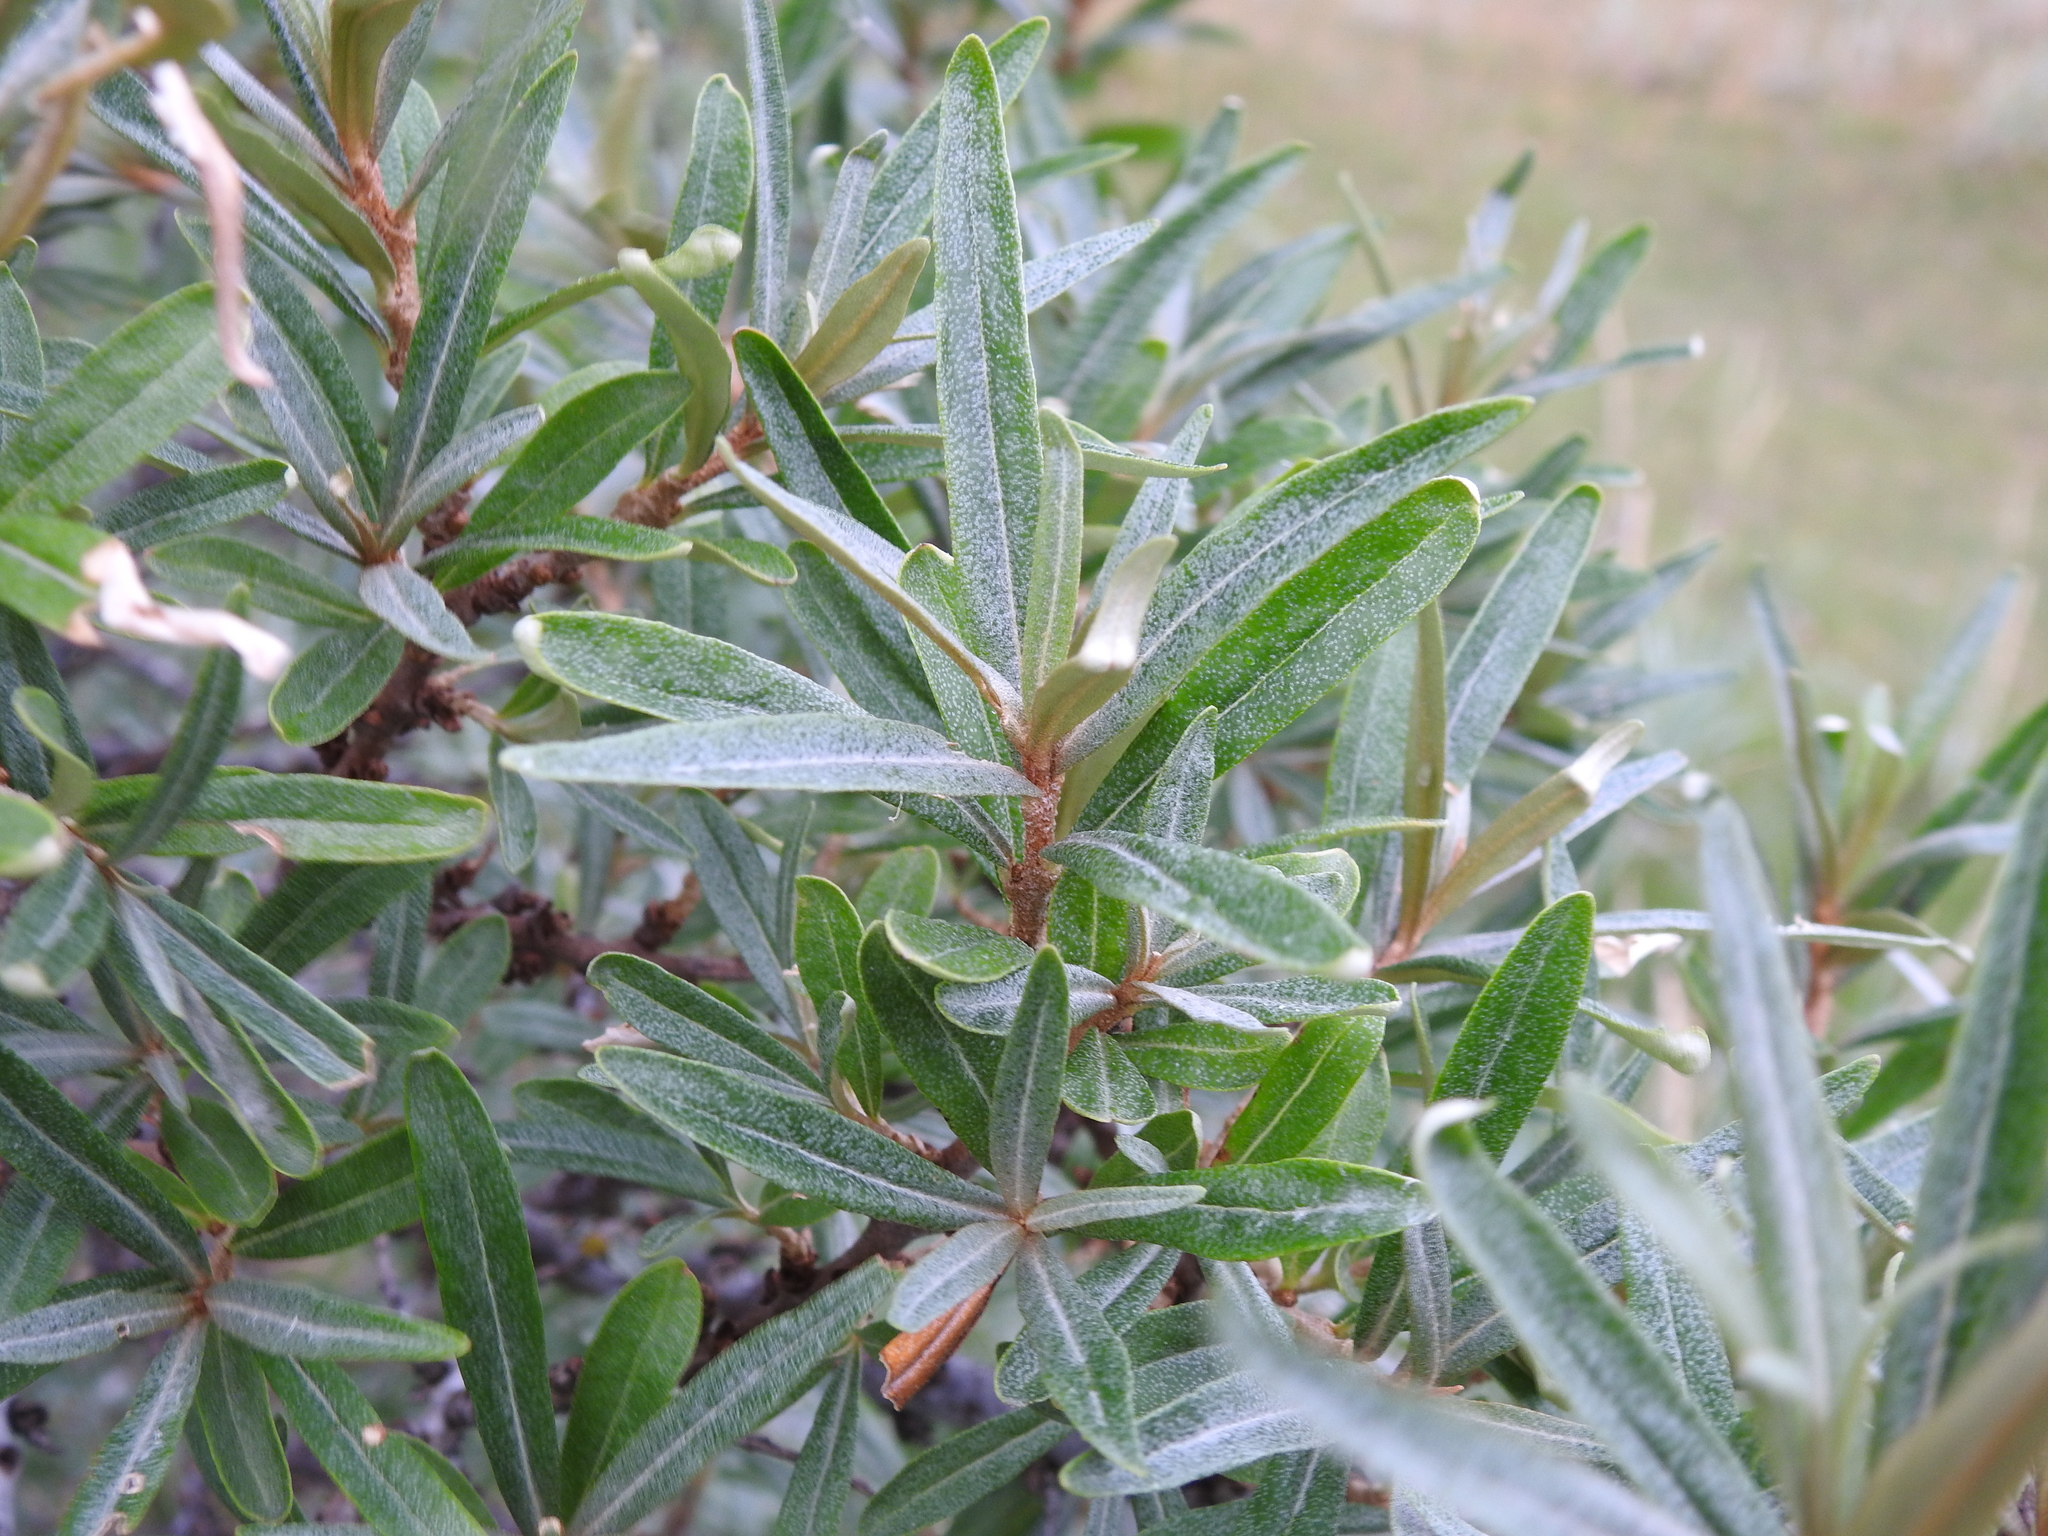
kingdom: Plantae
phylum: Tracheophyta
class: Magnoliopsida
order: Rosales
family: Elaeagnaceae
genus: Hippophae
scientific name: Hippophae rhamnoides
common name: Sea-buckthorn
